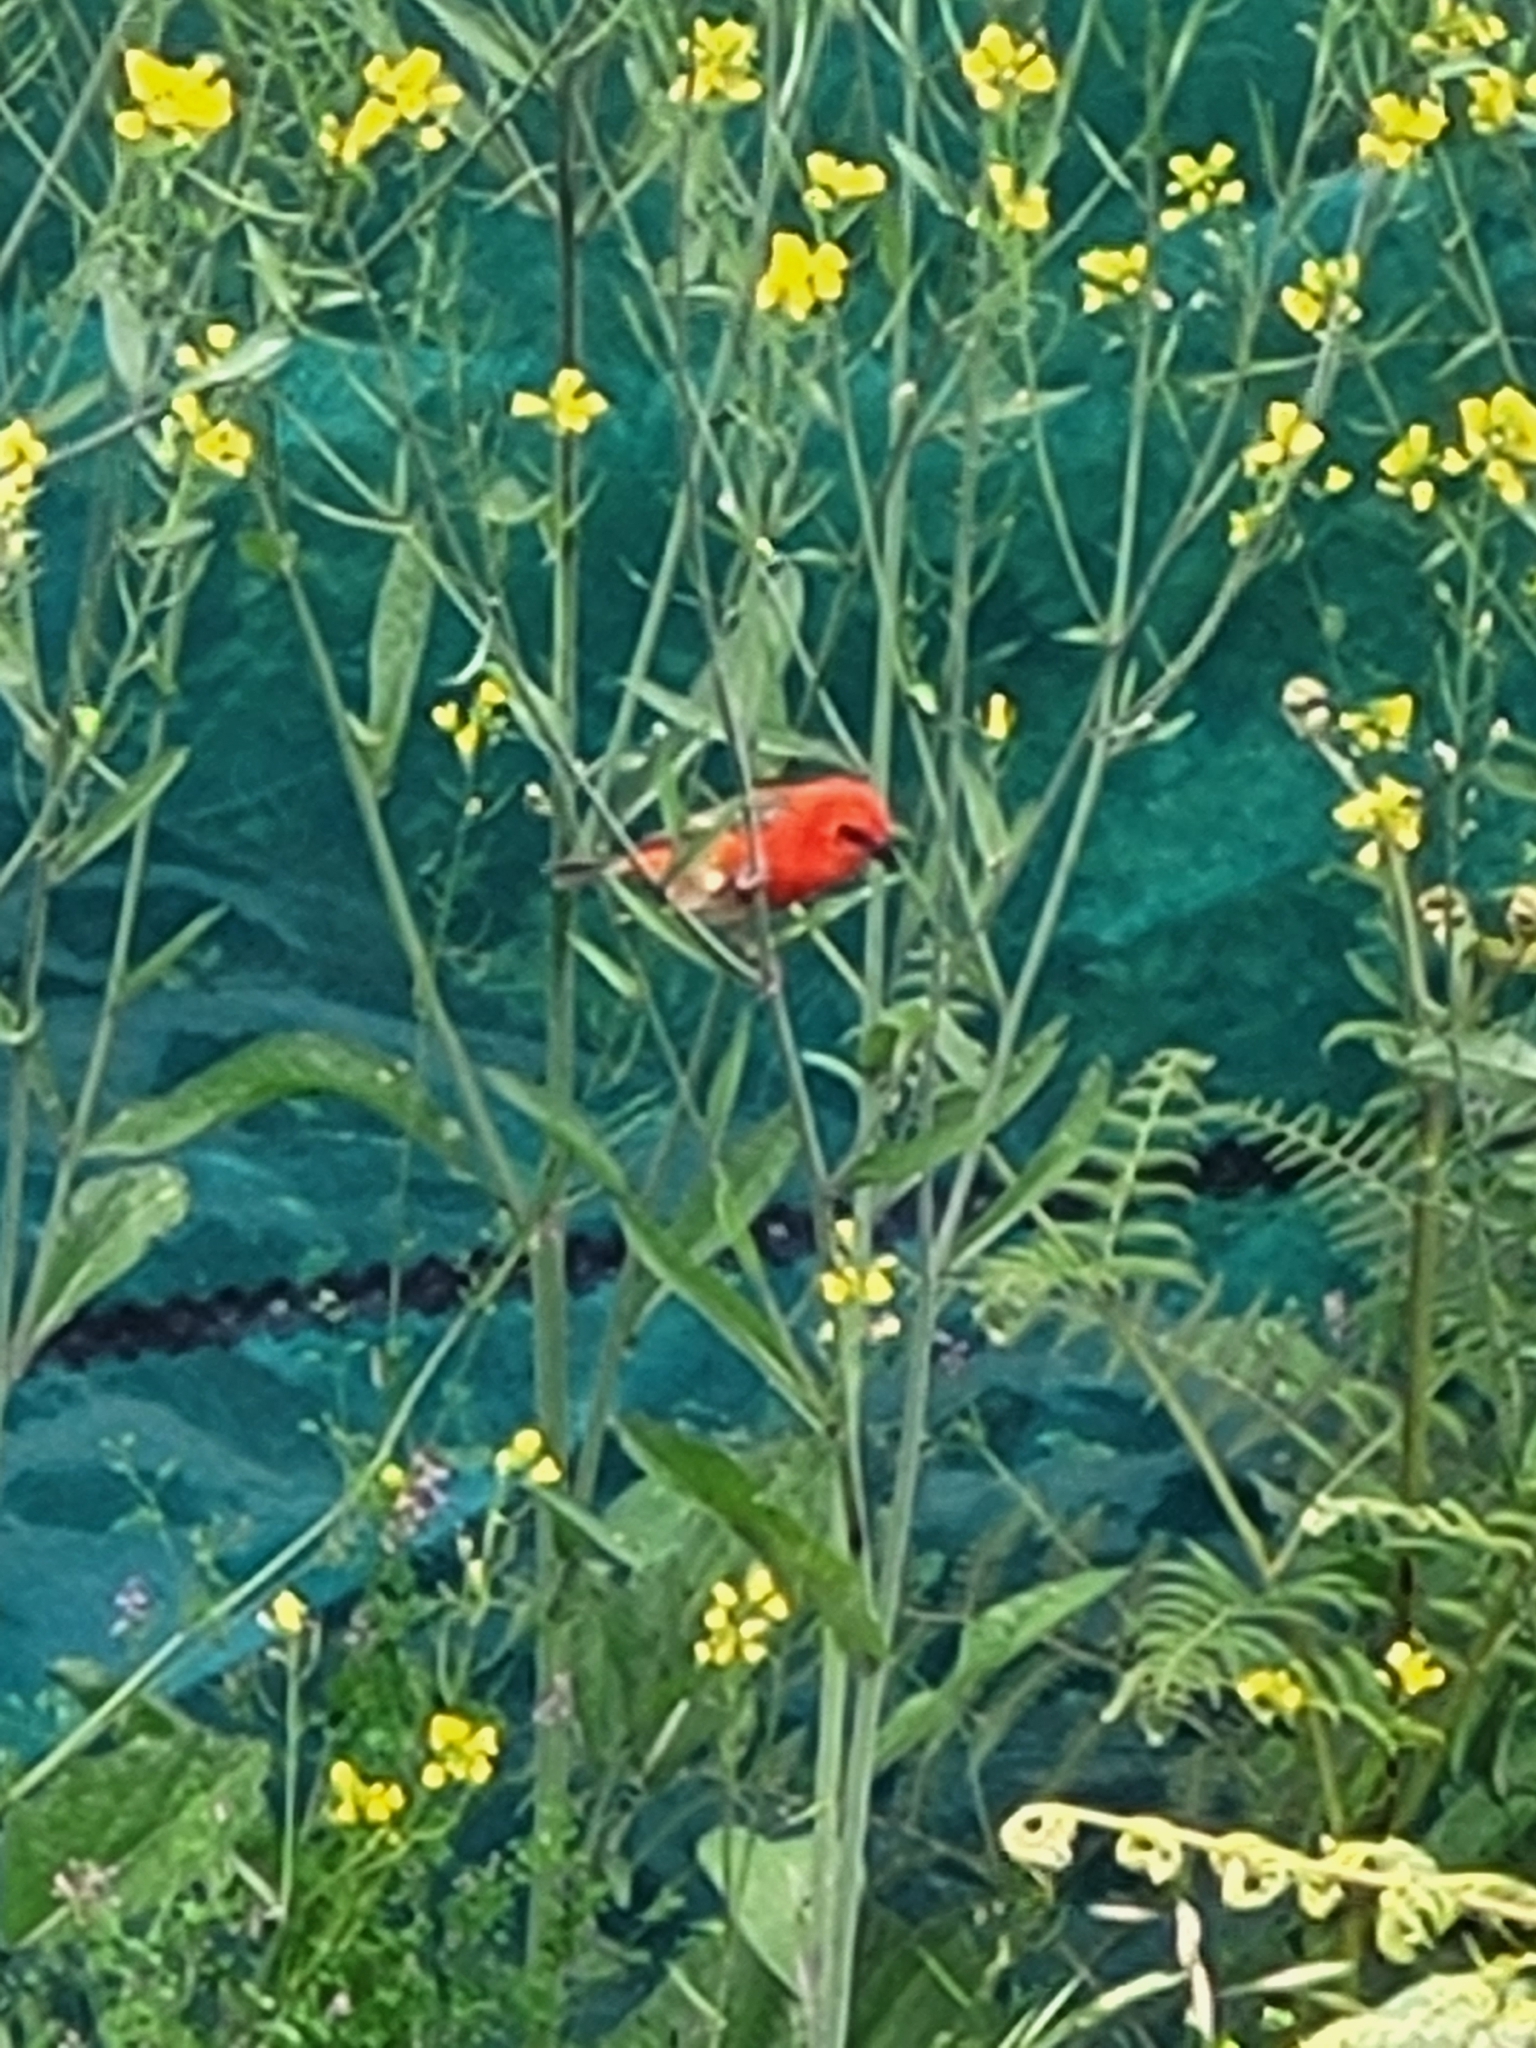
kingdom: Animalia
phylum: Chordata
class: Aves
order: Passeriformes
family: Ploceidae
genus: Foudia
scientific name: Foudia madagascariensis
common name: Red fody
